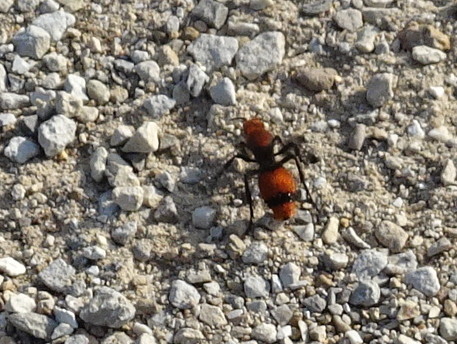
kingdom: Animalia
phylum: Arthropoda
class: Insecta
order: Hymenoptera
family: Mutillidae
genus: Dasymutilla
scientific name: Dasymutilla occidentalis
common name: Common eastern velvet ant
